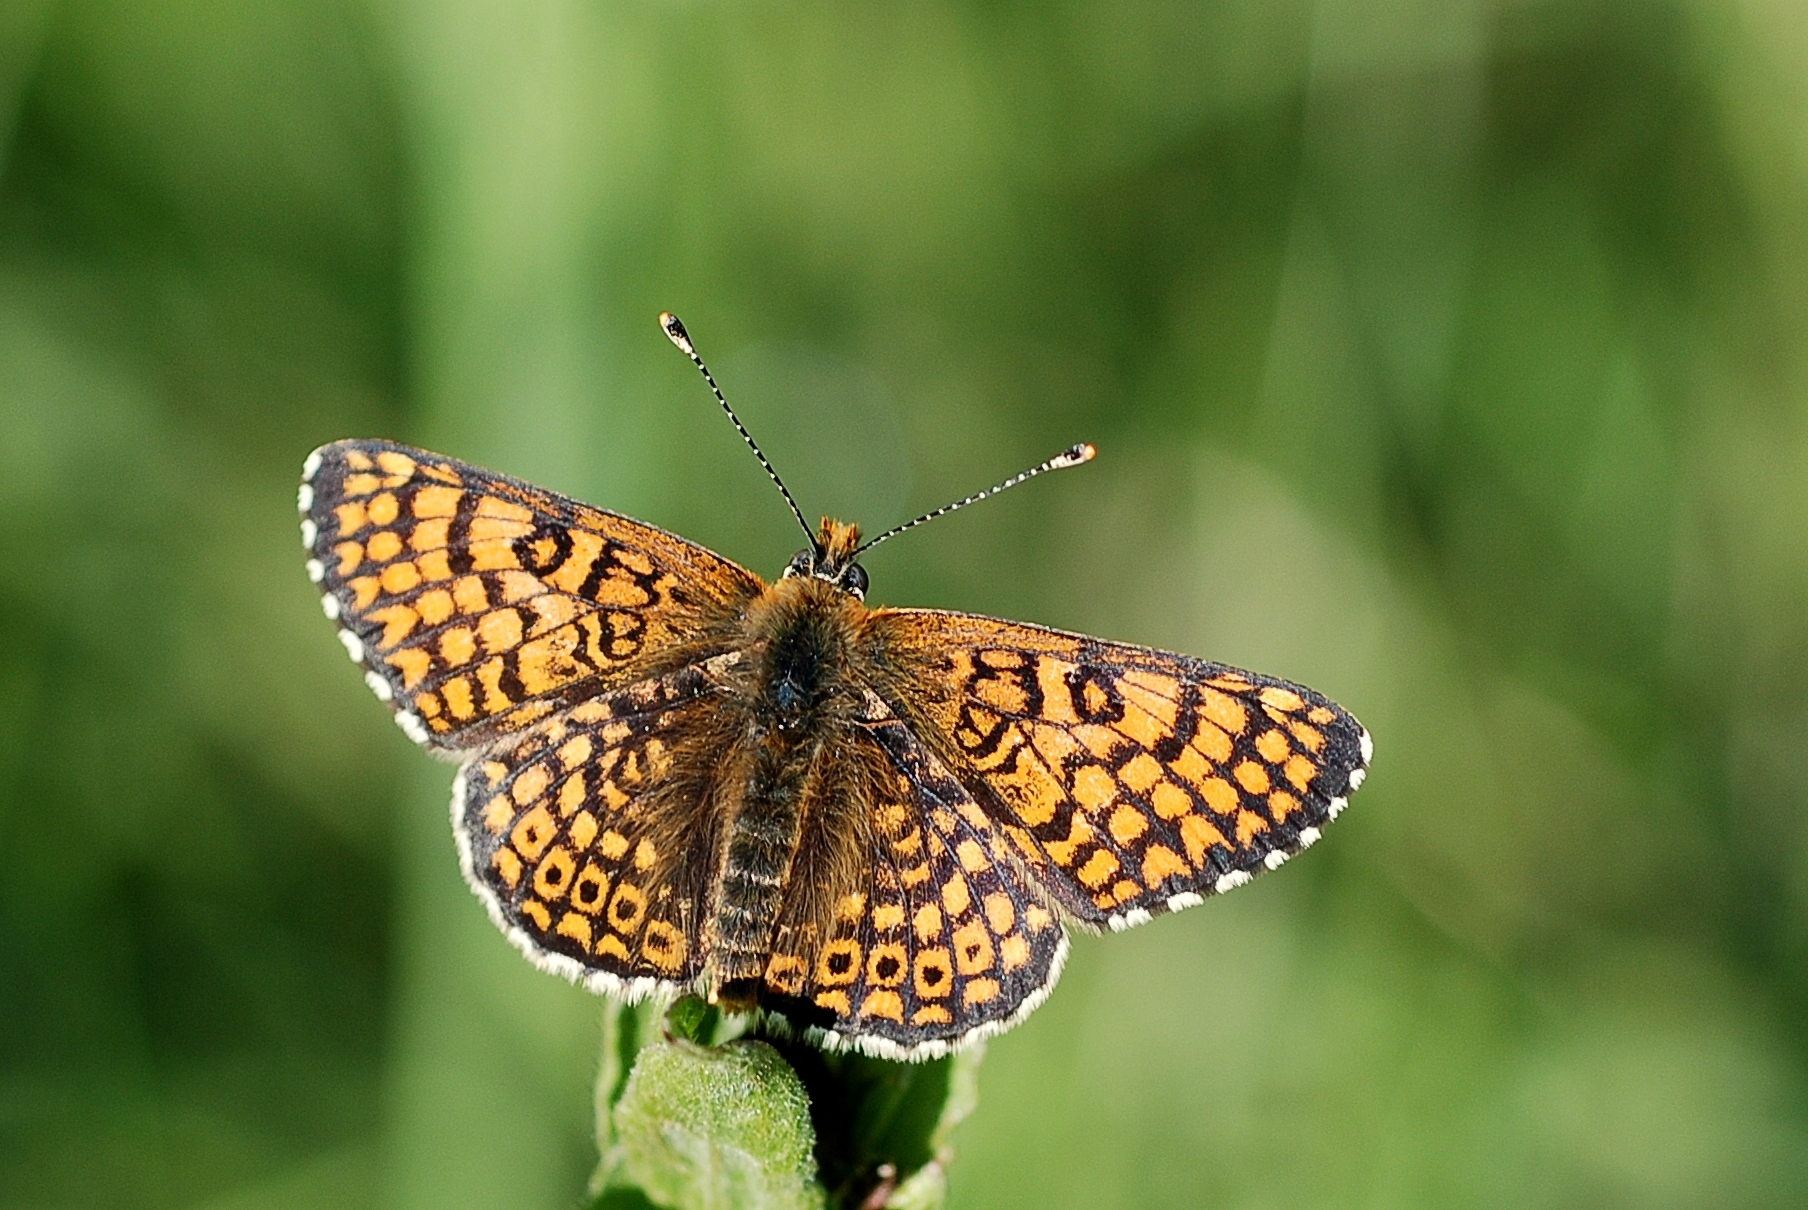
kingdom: Animalia
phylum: Arthropoda
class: Insecta
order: Lepidoptera
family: Nymphalidae
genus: Melitaea
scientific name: Melitaea cinxia
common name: Glanville fritillary
